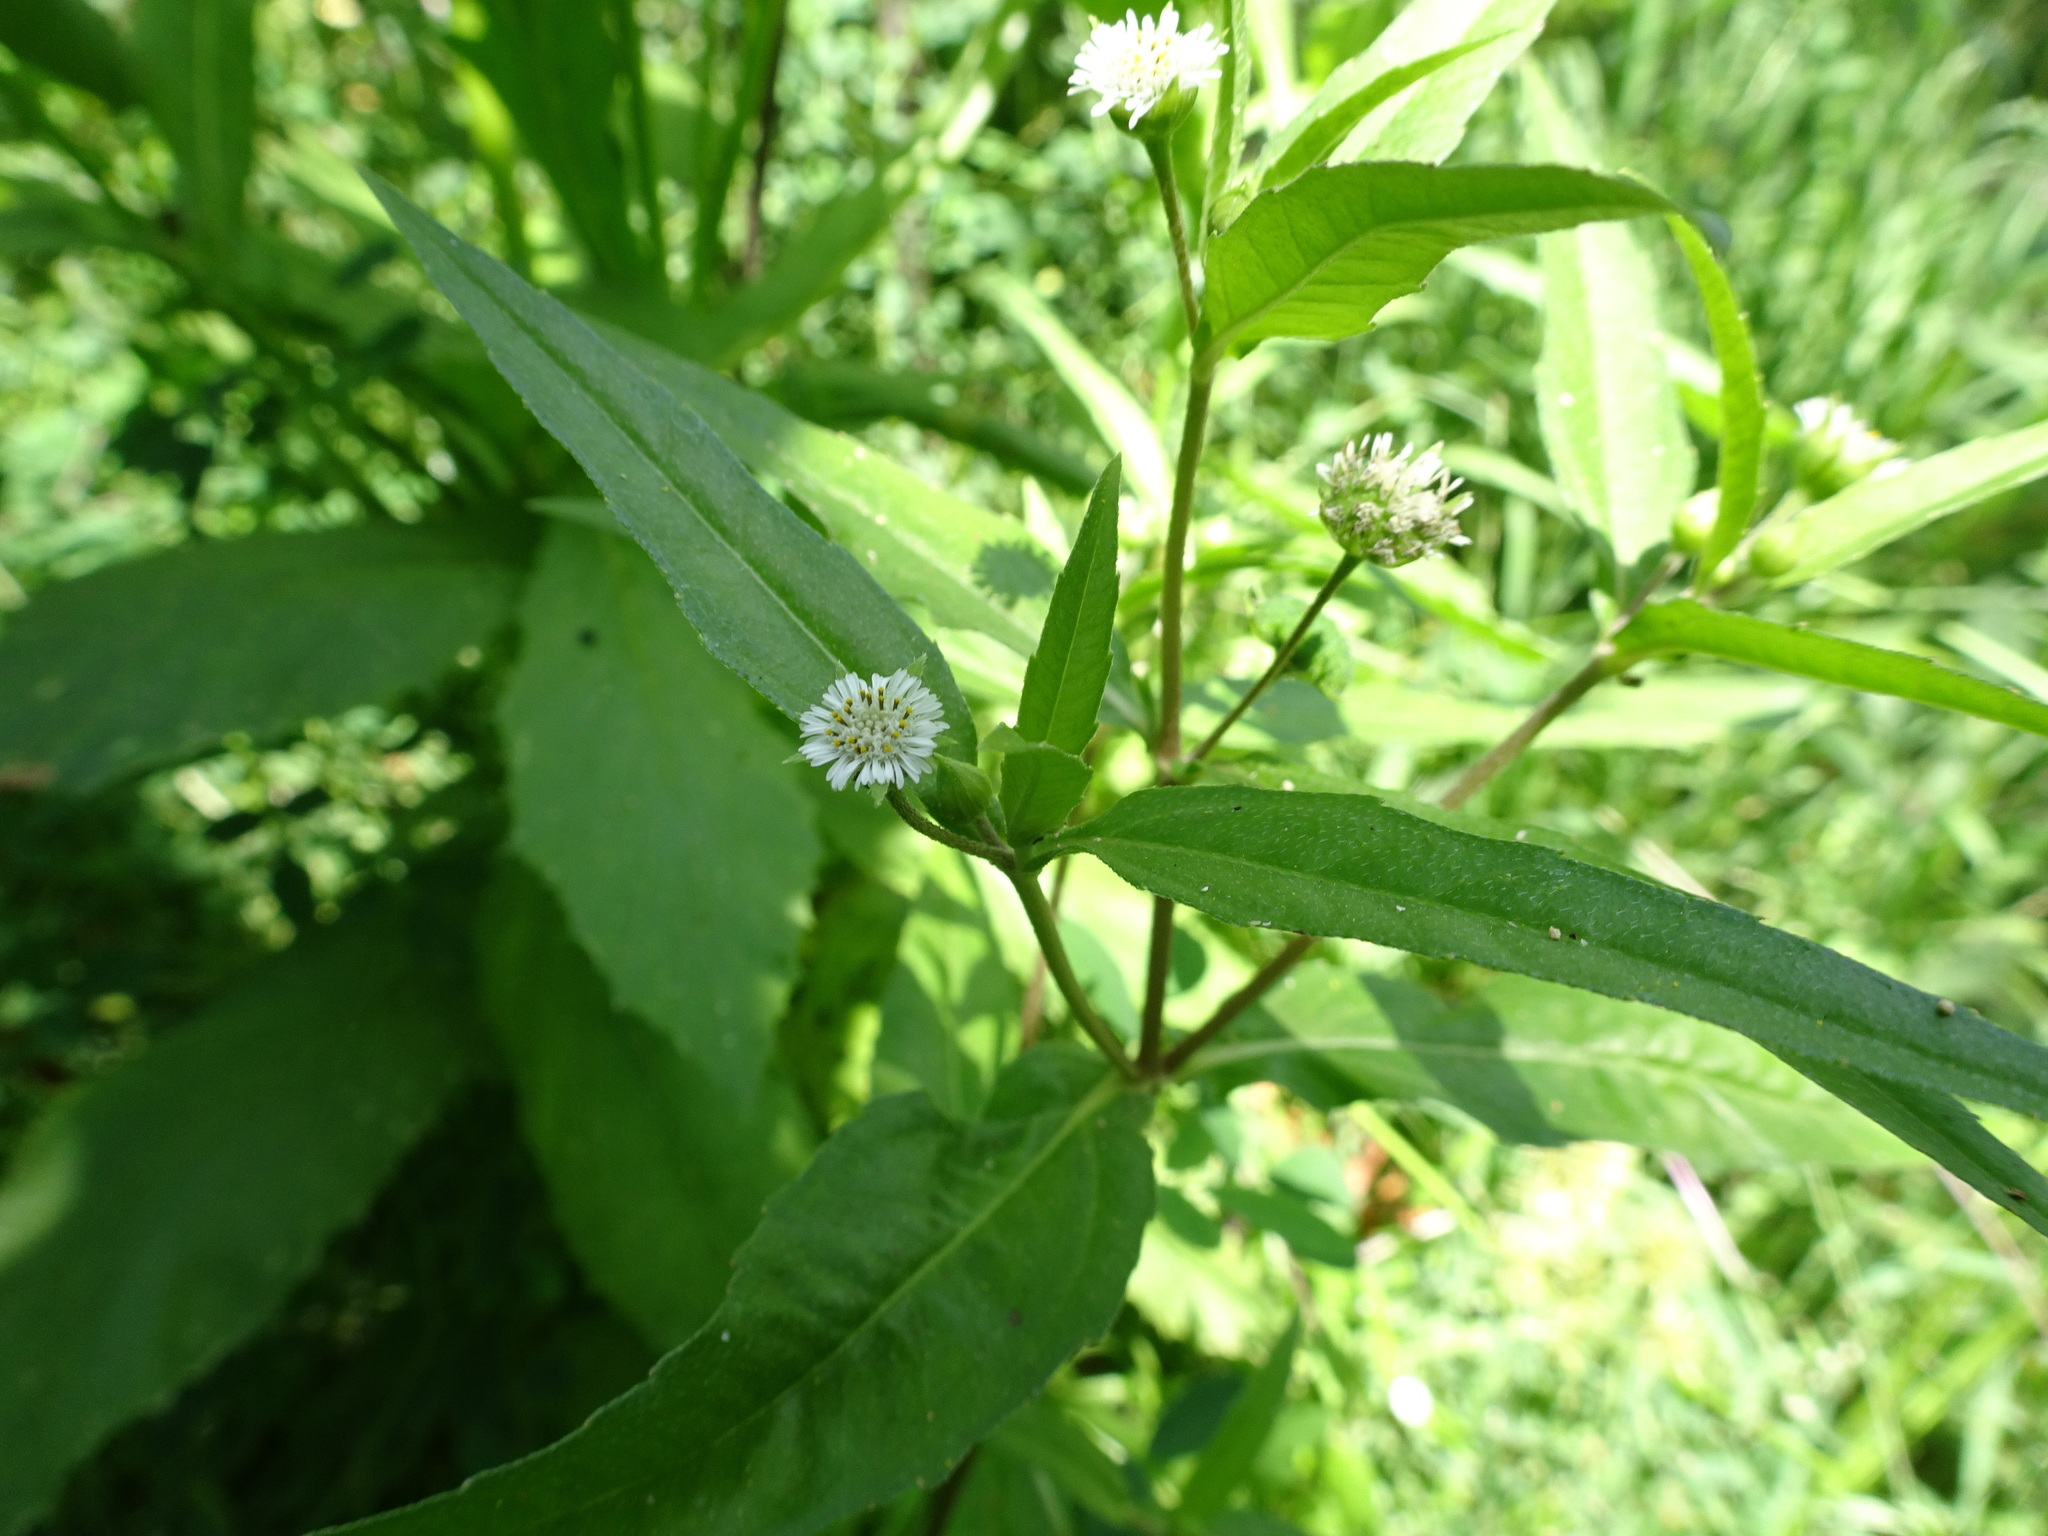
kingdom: Plantae
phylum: Tracheophyta
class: Magnoliopsida
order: Asterales
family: Asteraceae
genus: Eclipta
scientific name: Eclipta prostrata
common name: False daisy
